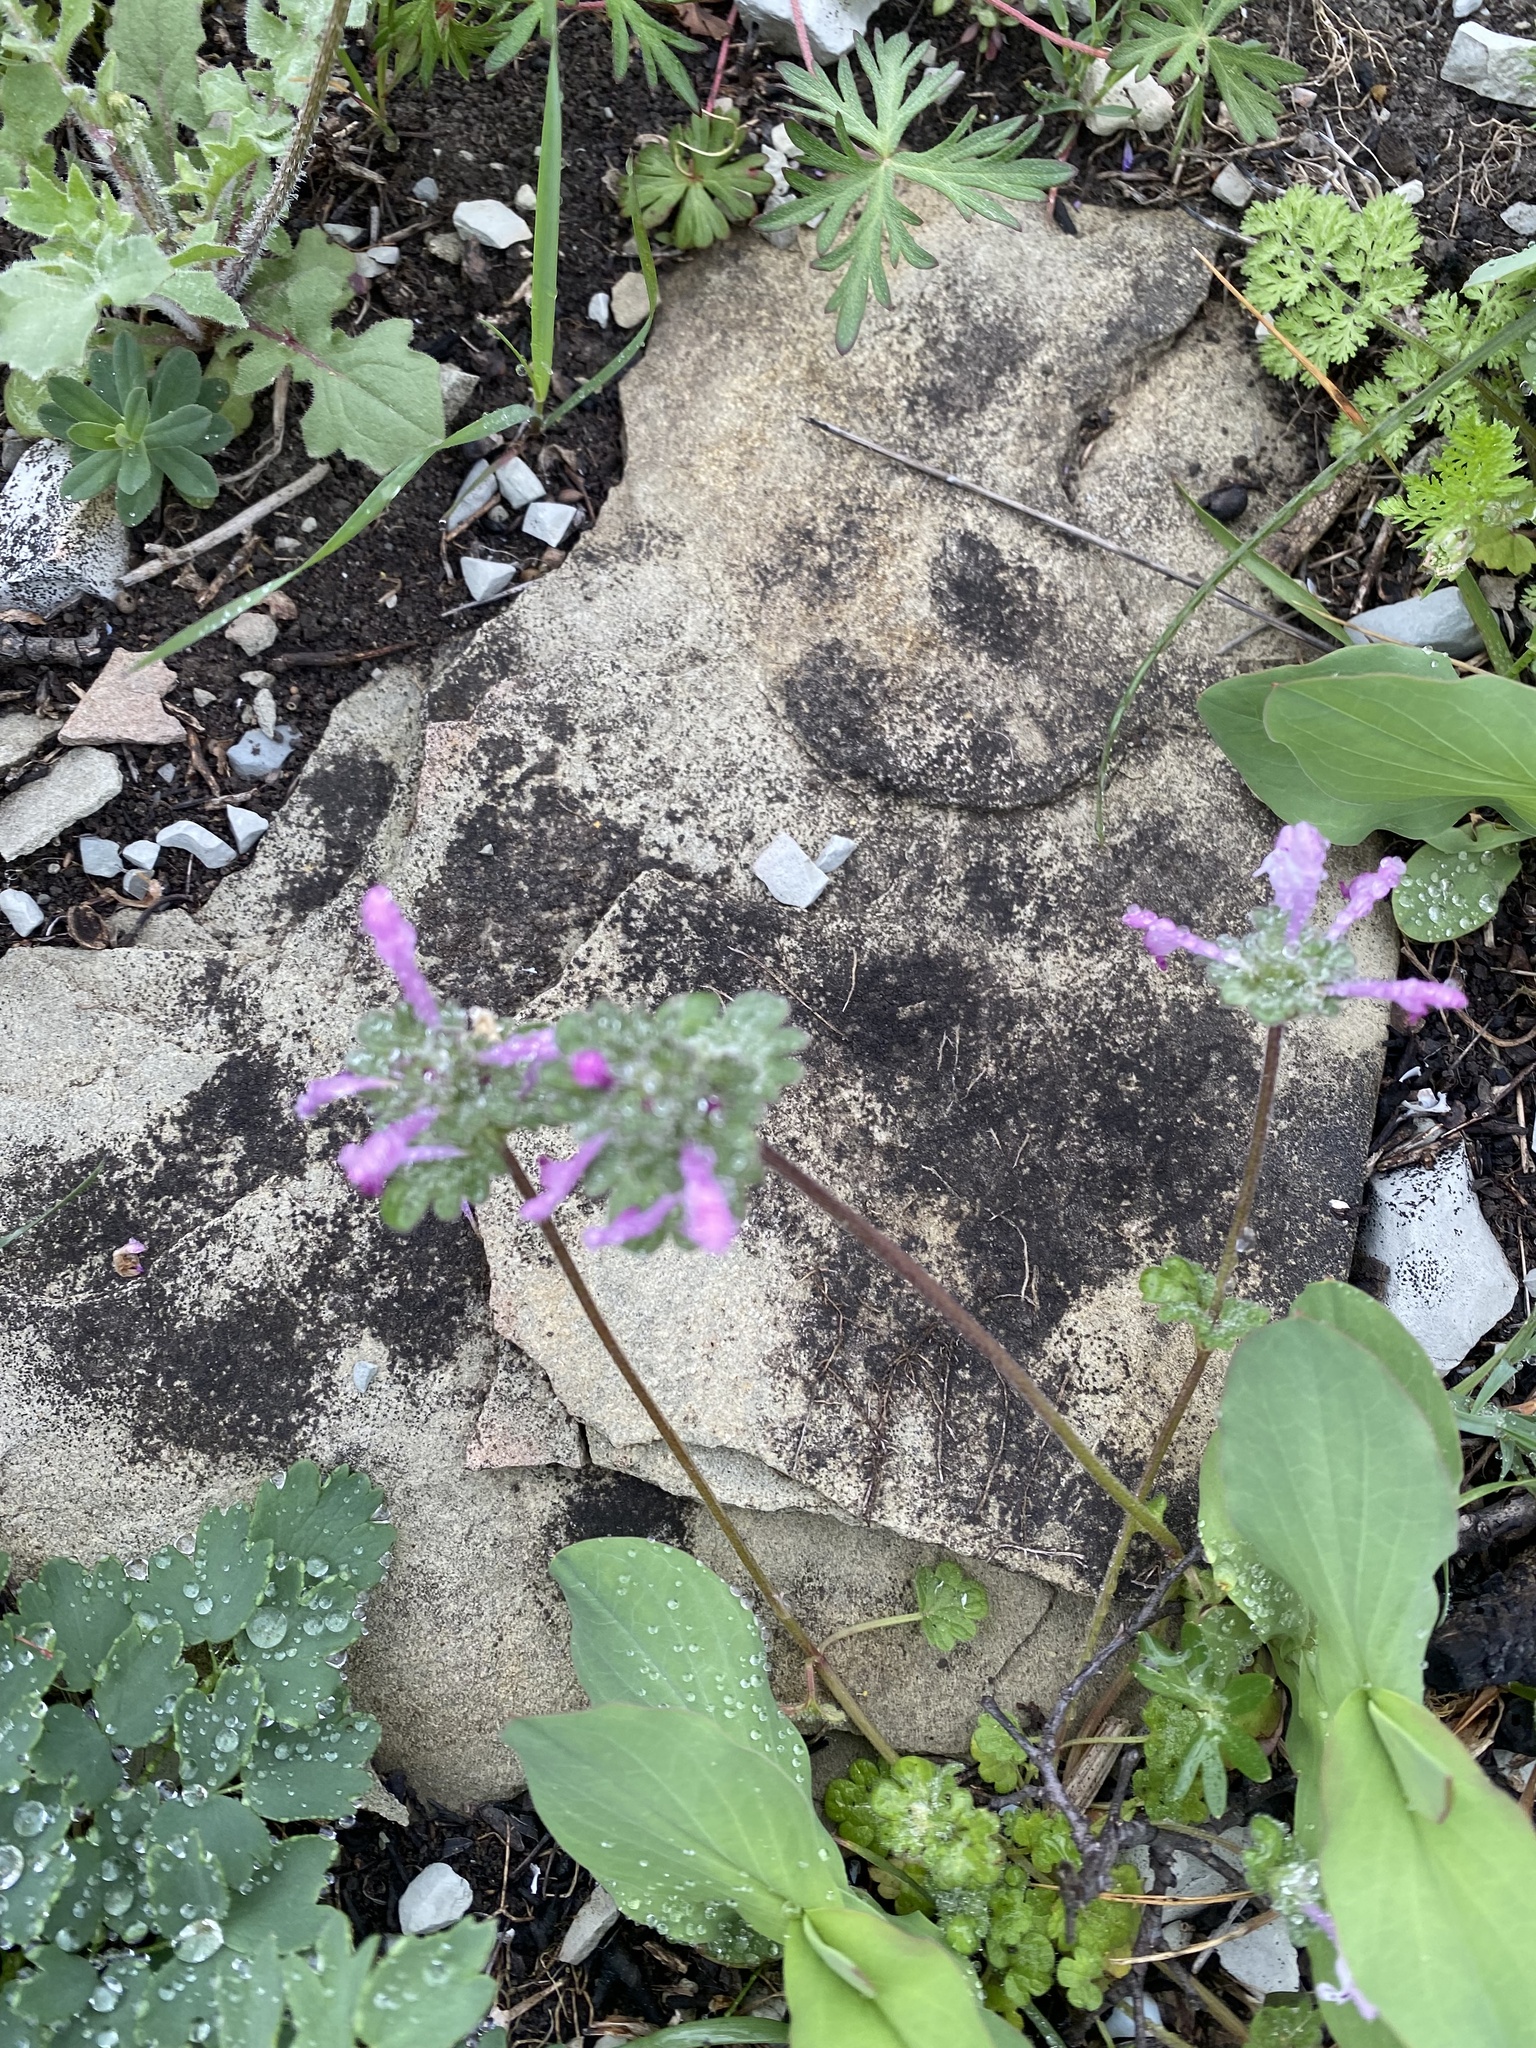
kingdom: Plantae
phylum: Tracheophyta
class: Magnoliopsida
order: Lamiales
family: Lamiaceae
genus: Lamium
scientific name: Lamium amplexicaule
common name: Henbit dead-nettle
